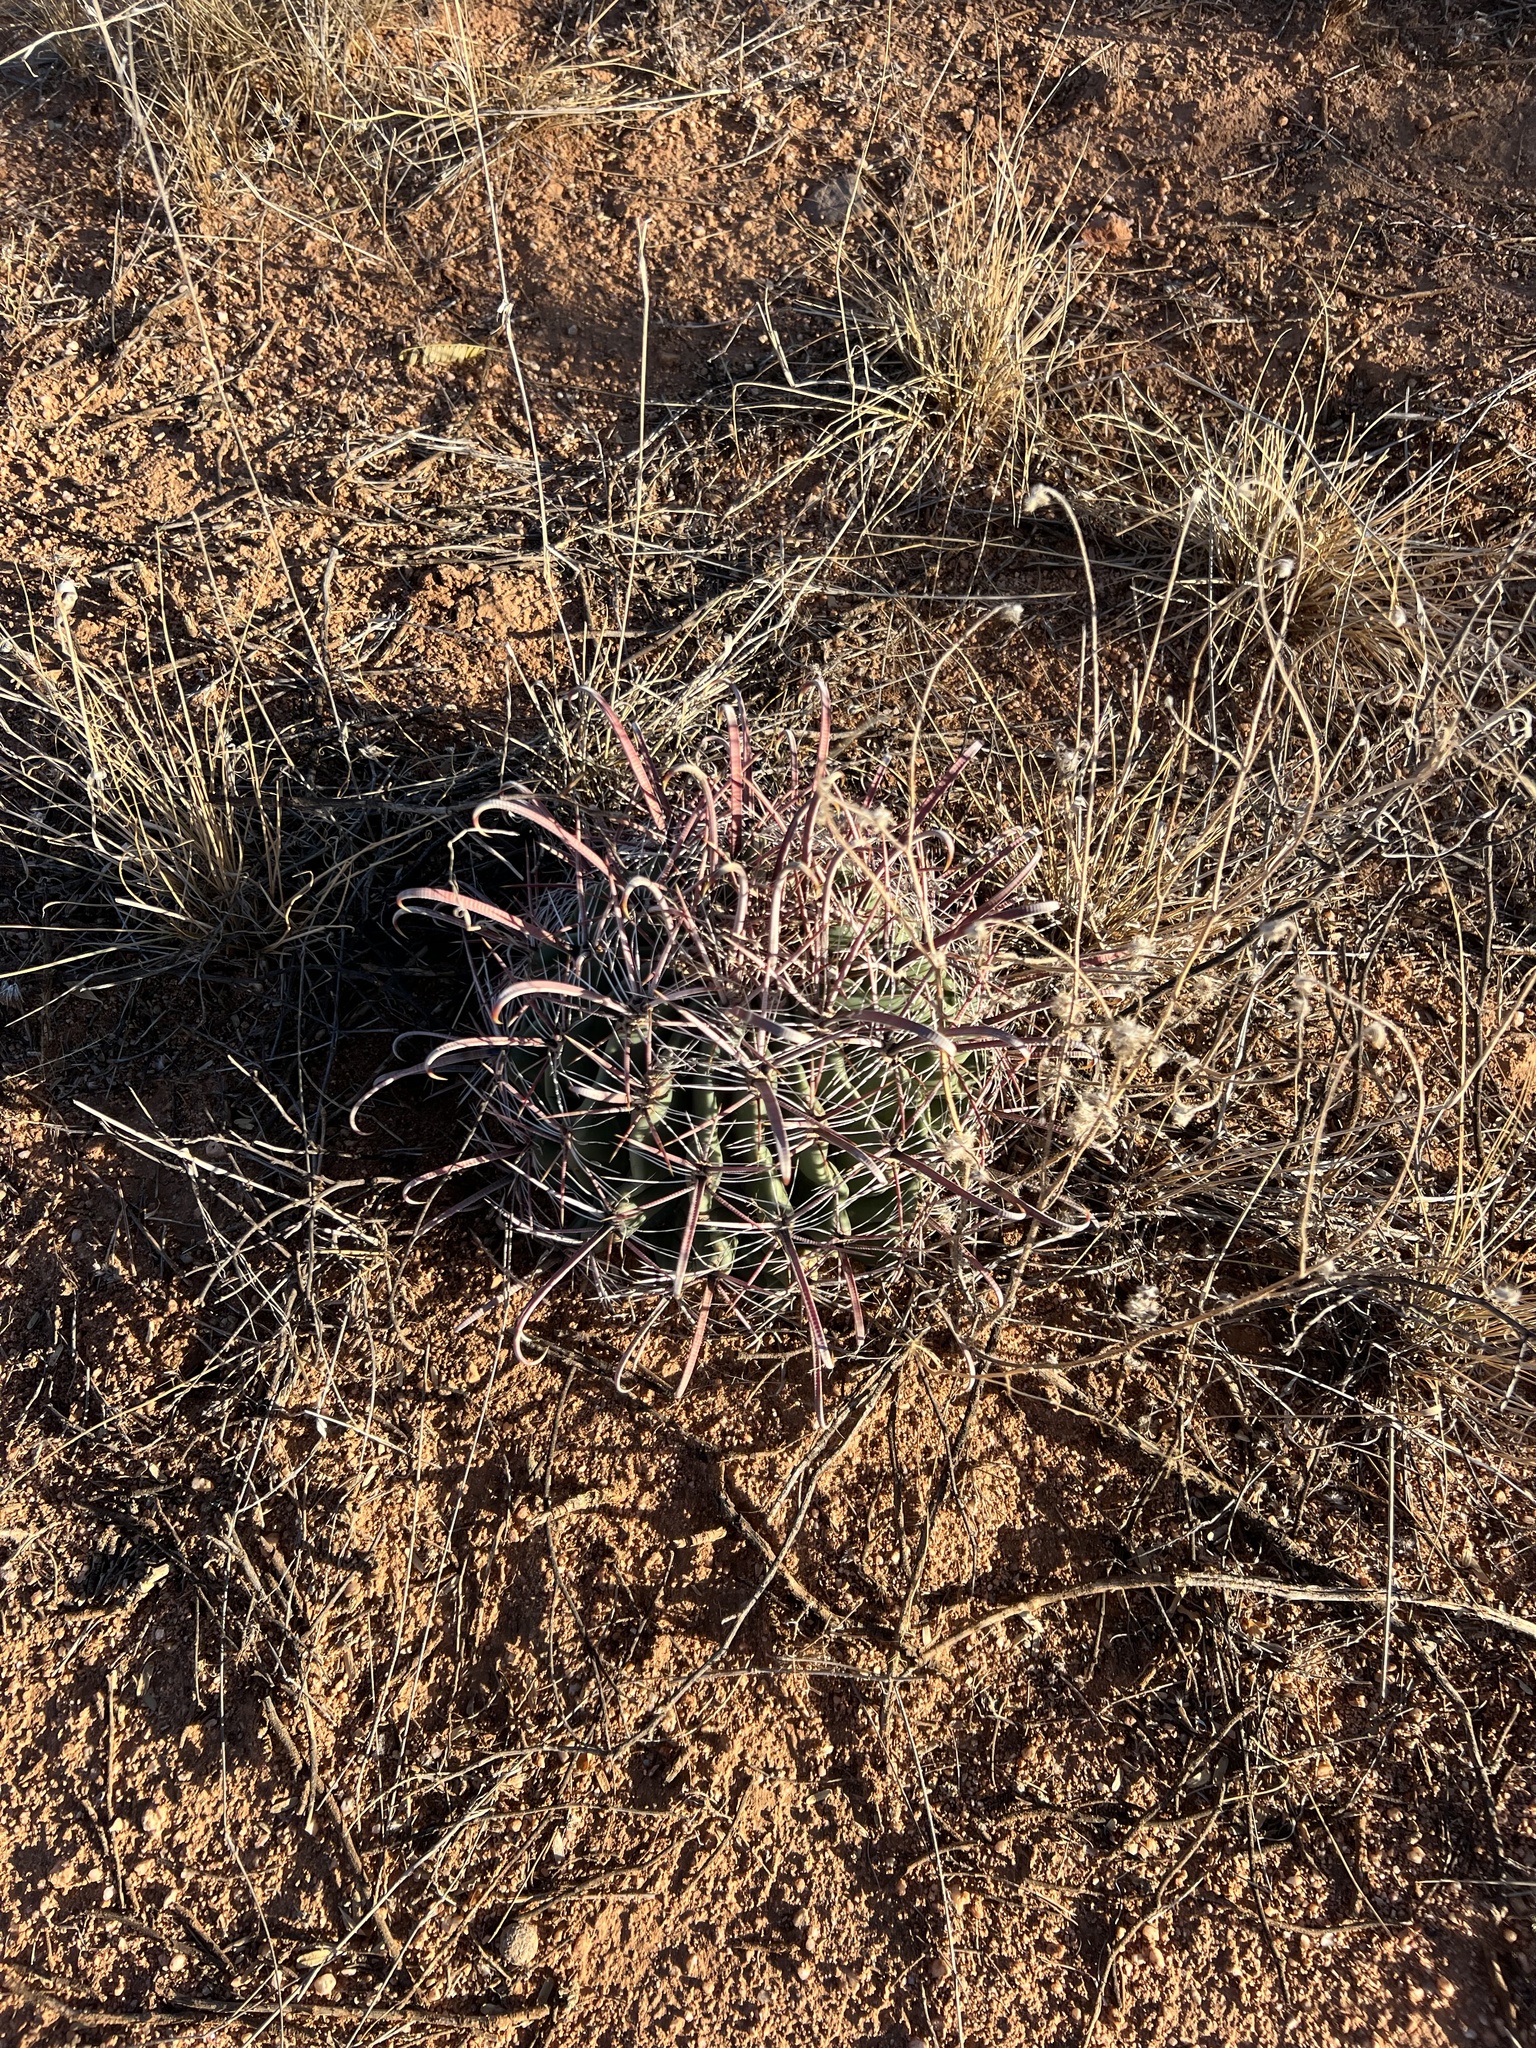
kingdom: Plantae
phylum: Tracheophyta
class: Magnoliopsida
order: Caryophyllales
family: Cactaceae
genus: Ferocactus
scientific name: Ferocactus wislizeni
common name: Candy barrel cactus
